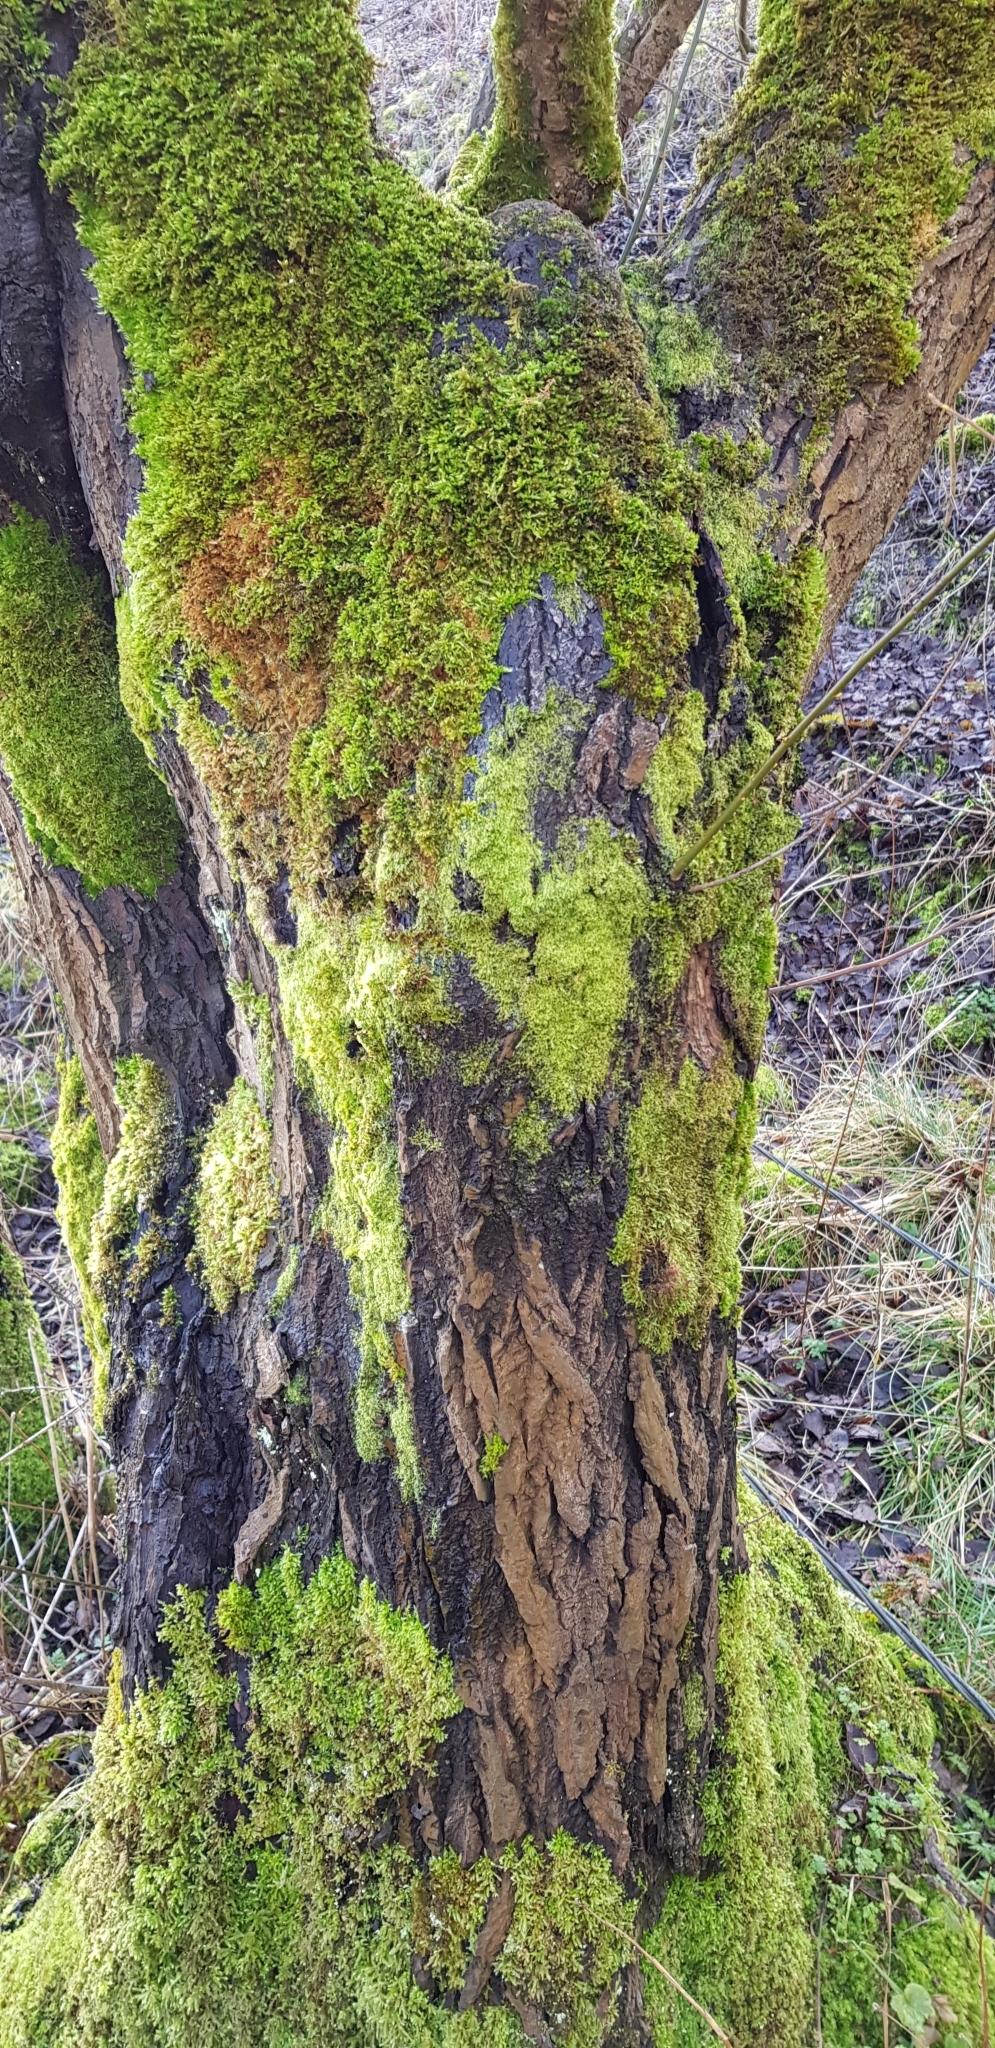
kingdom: Plantae
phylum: Marchantiophyta
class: Jungermanniopsida
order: Metzgeriales
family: Metzgeriaceae
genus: Metzgeria
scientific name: Metzgeria furcata
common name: Forked veilwort
